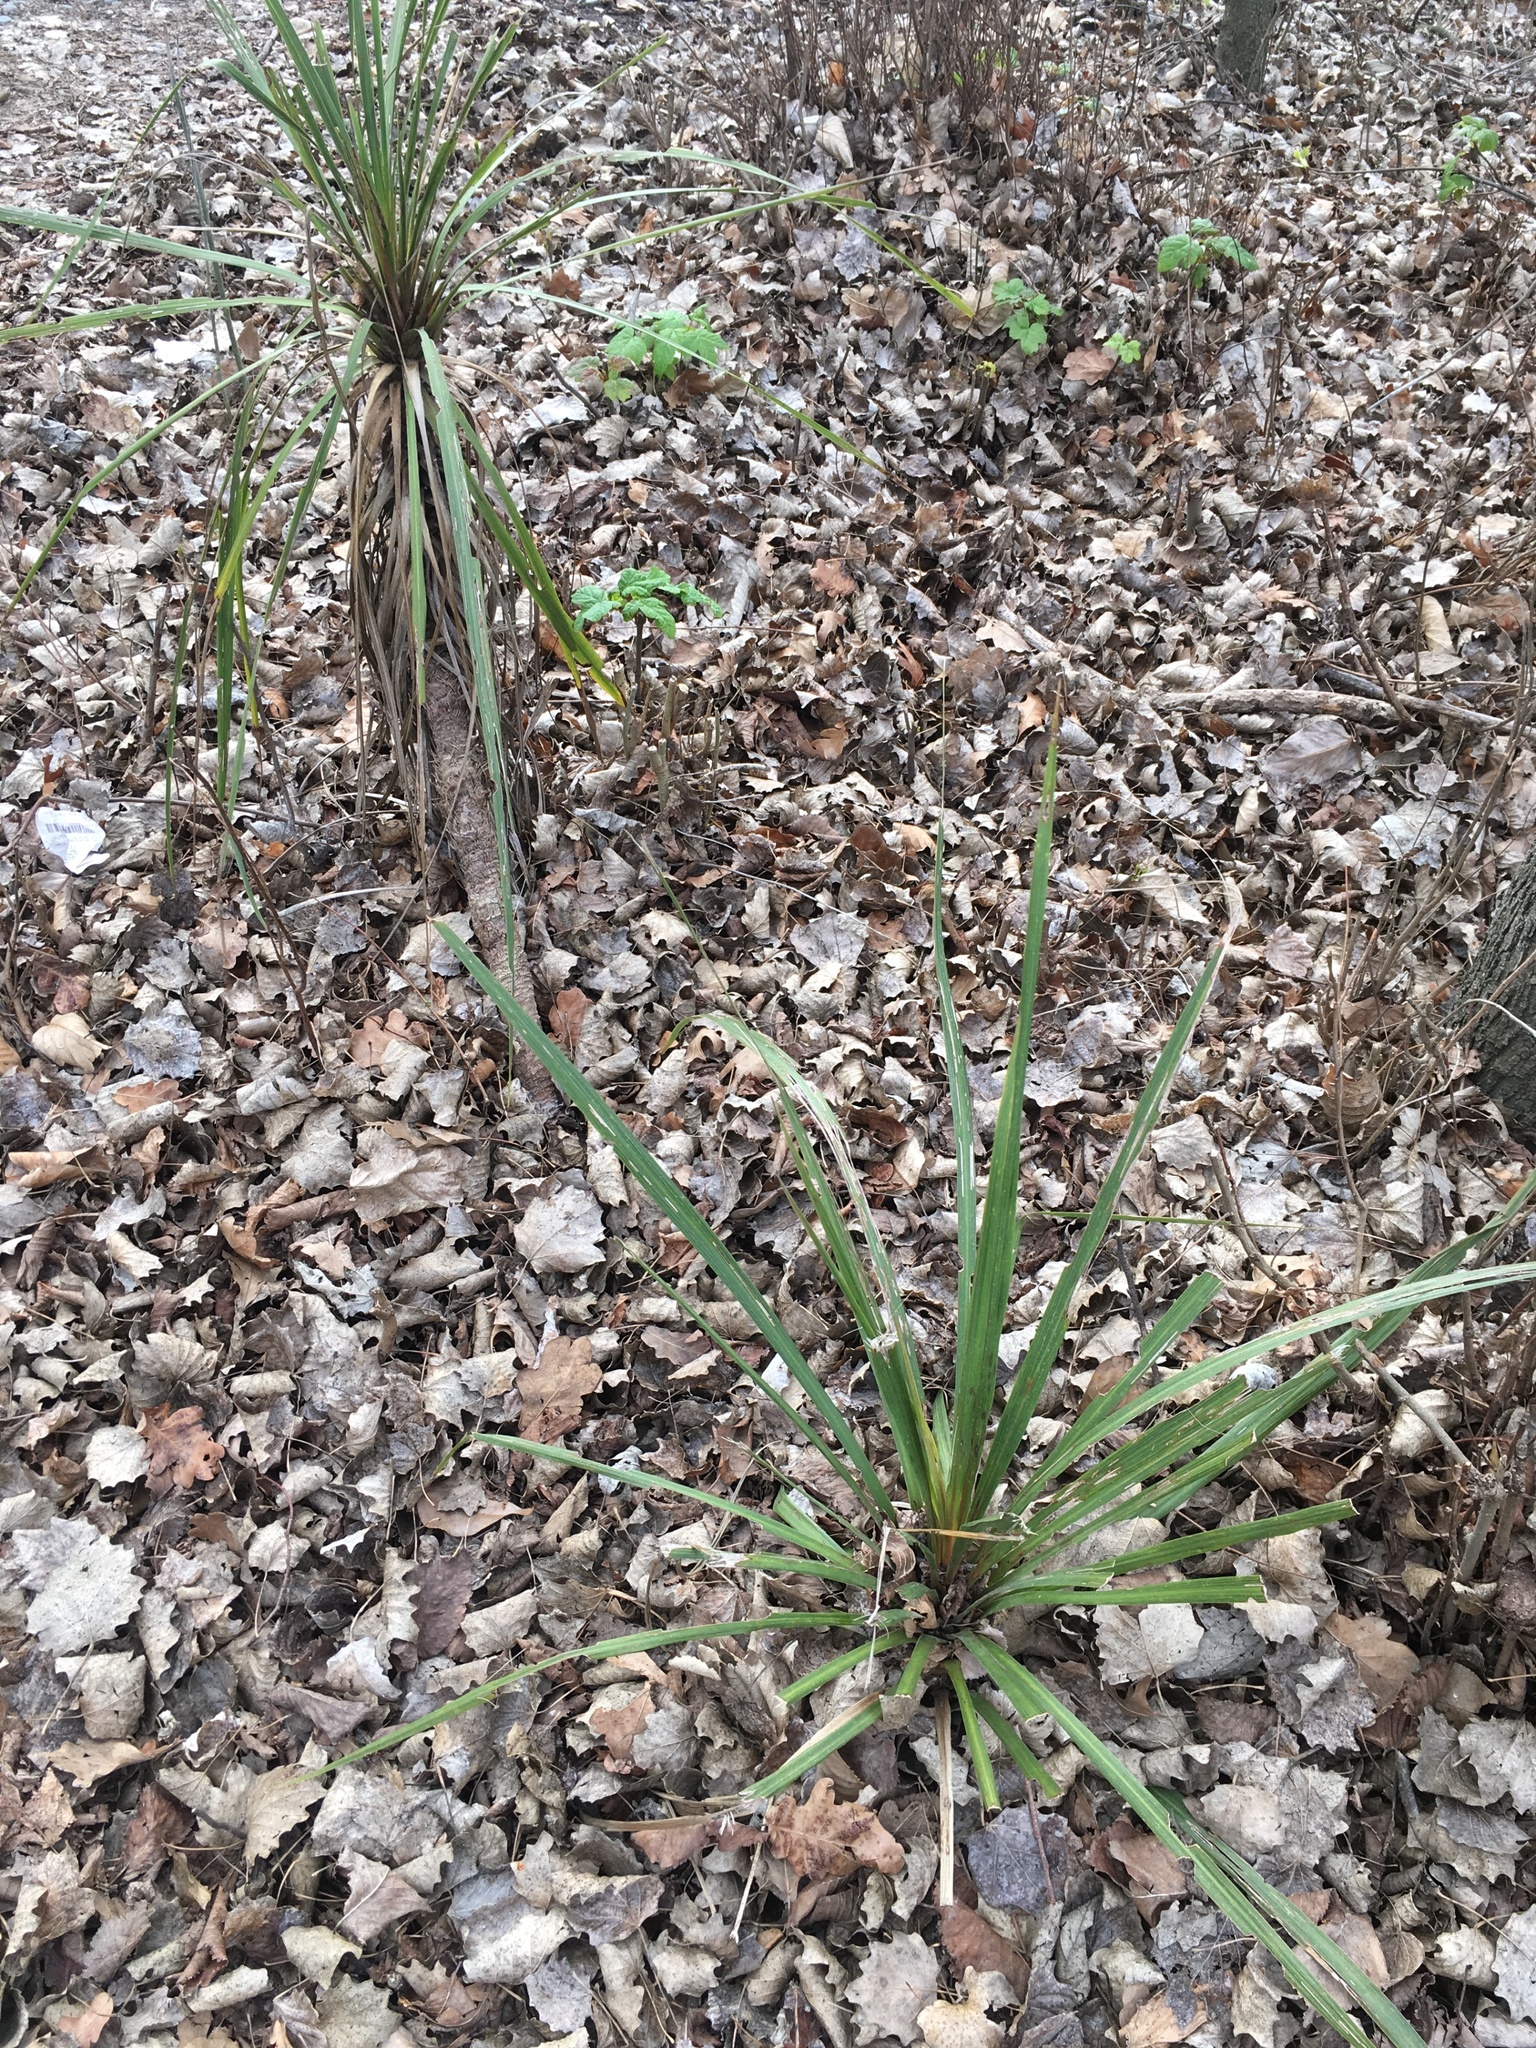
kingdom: Plantae
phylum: Tracheophyta
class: Liliopsida
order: Asparagales
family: Asparagaceae
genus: Cordyline
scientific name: Cordyline australis
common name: Cabbage-palm
